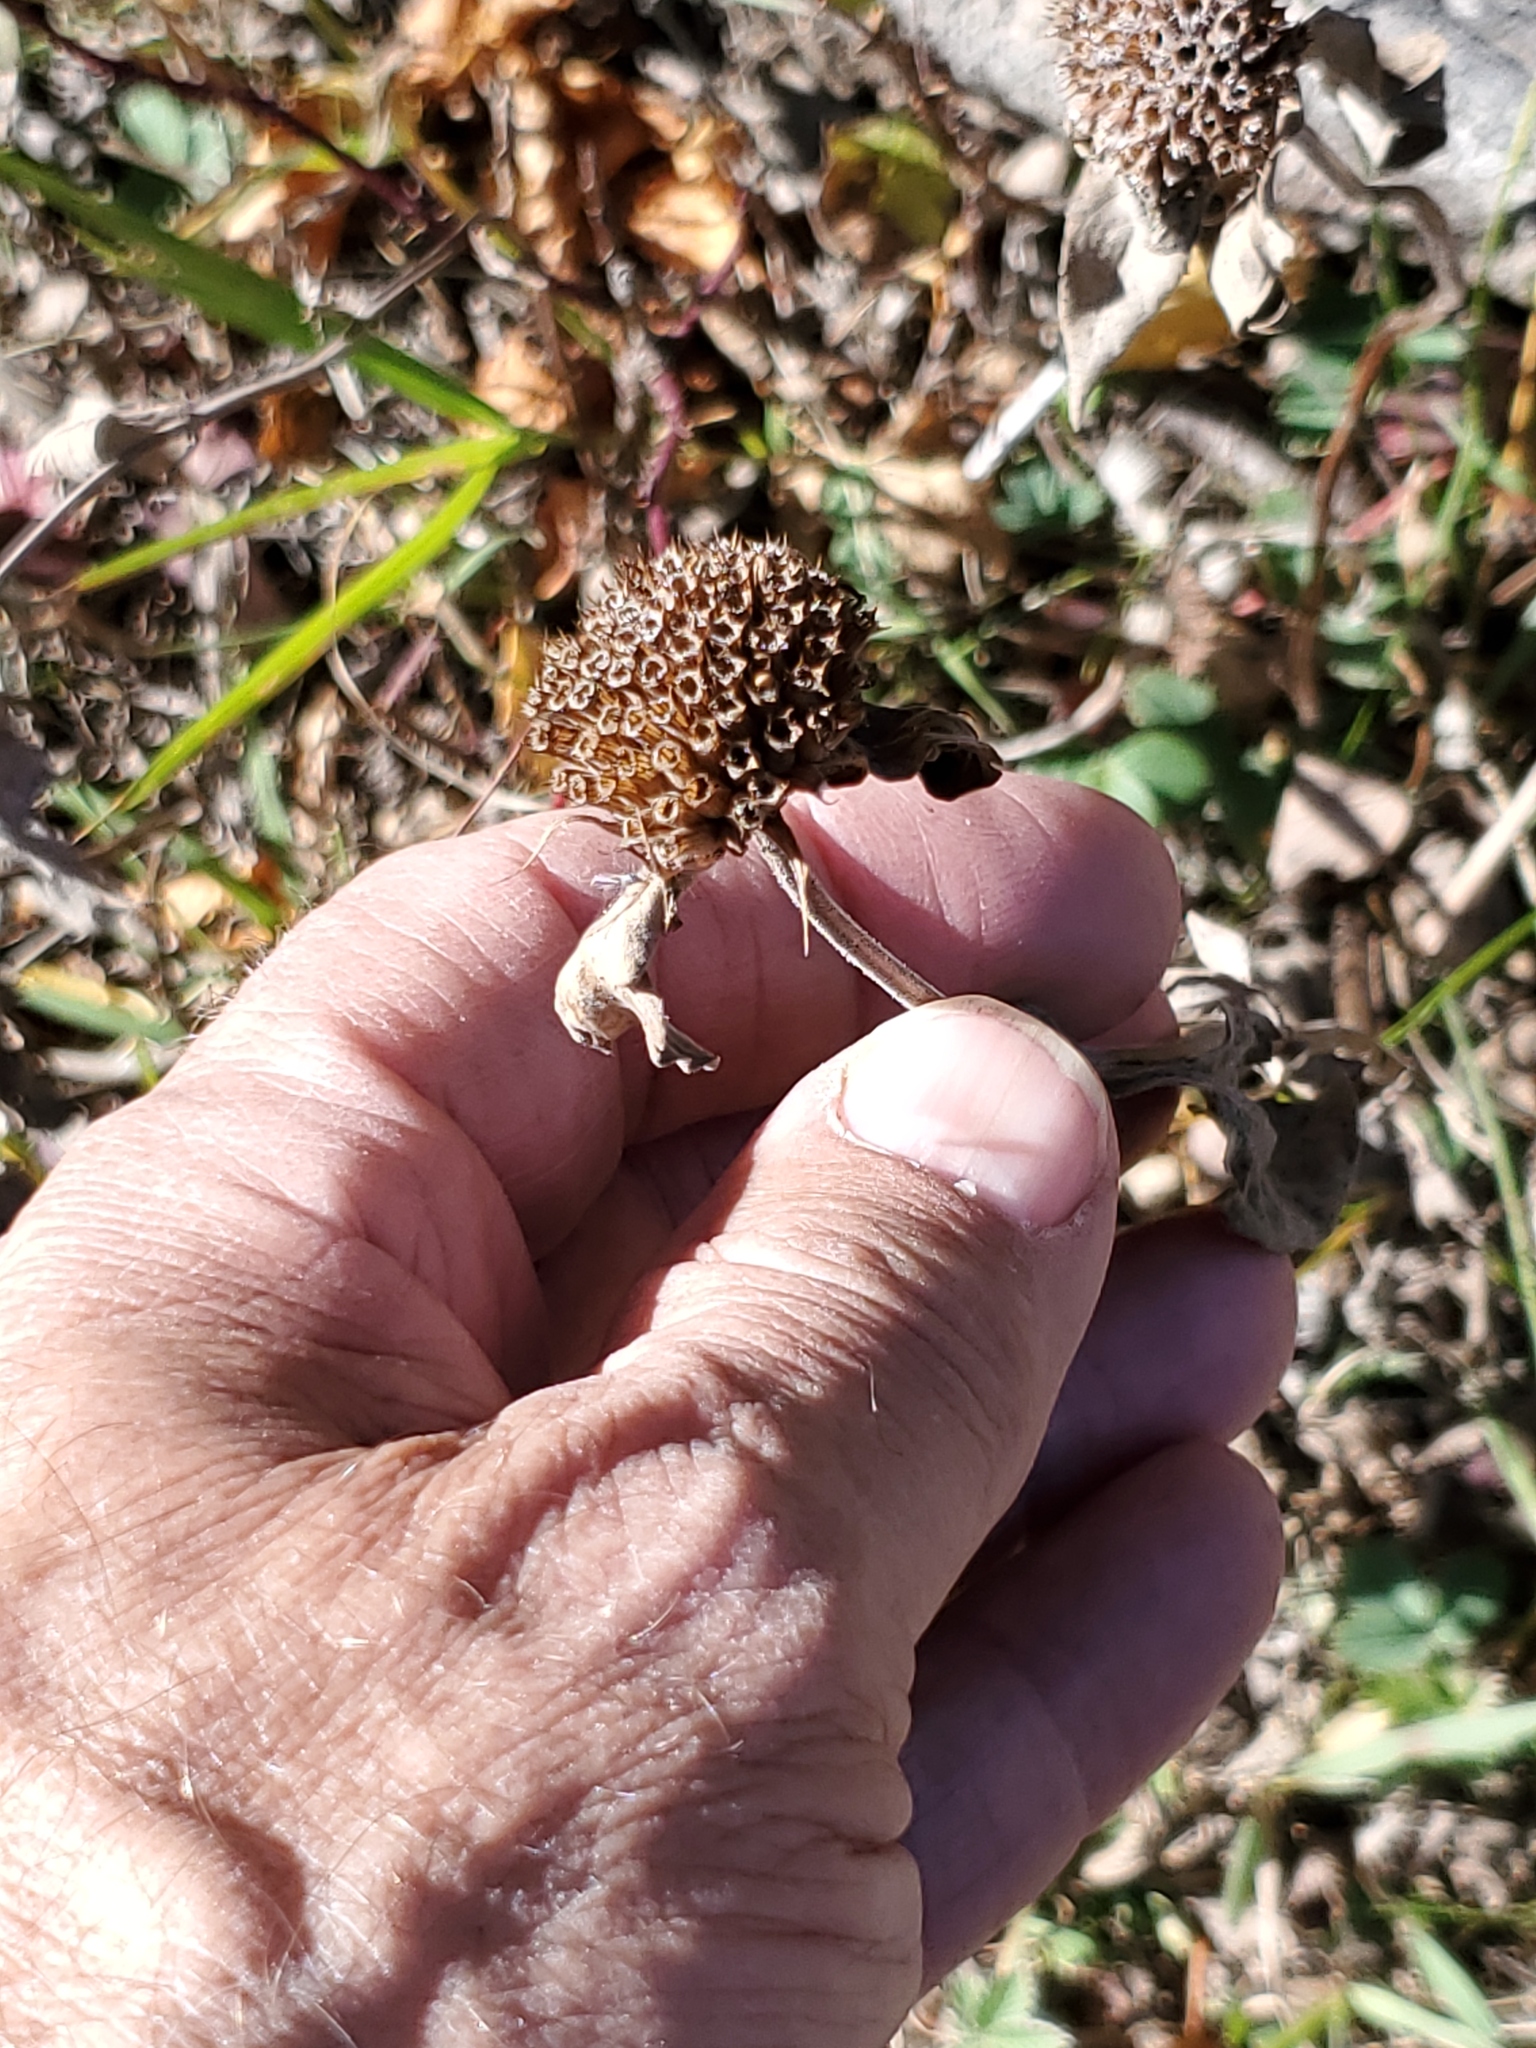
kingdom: Plantae
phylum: Tracheophyta
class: Magnoliopsida
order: Lamiales
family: Lamiaceae
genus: Monarda
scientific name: Monarda fistulosa
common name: Purple beebalm
